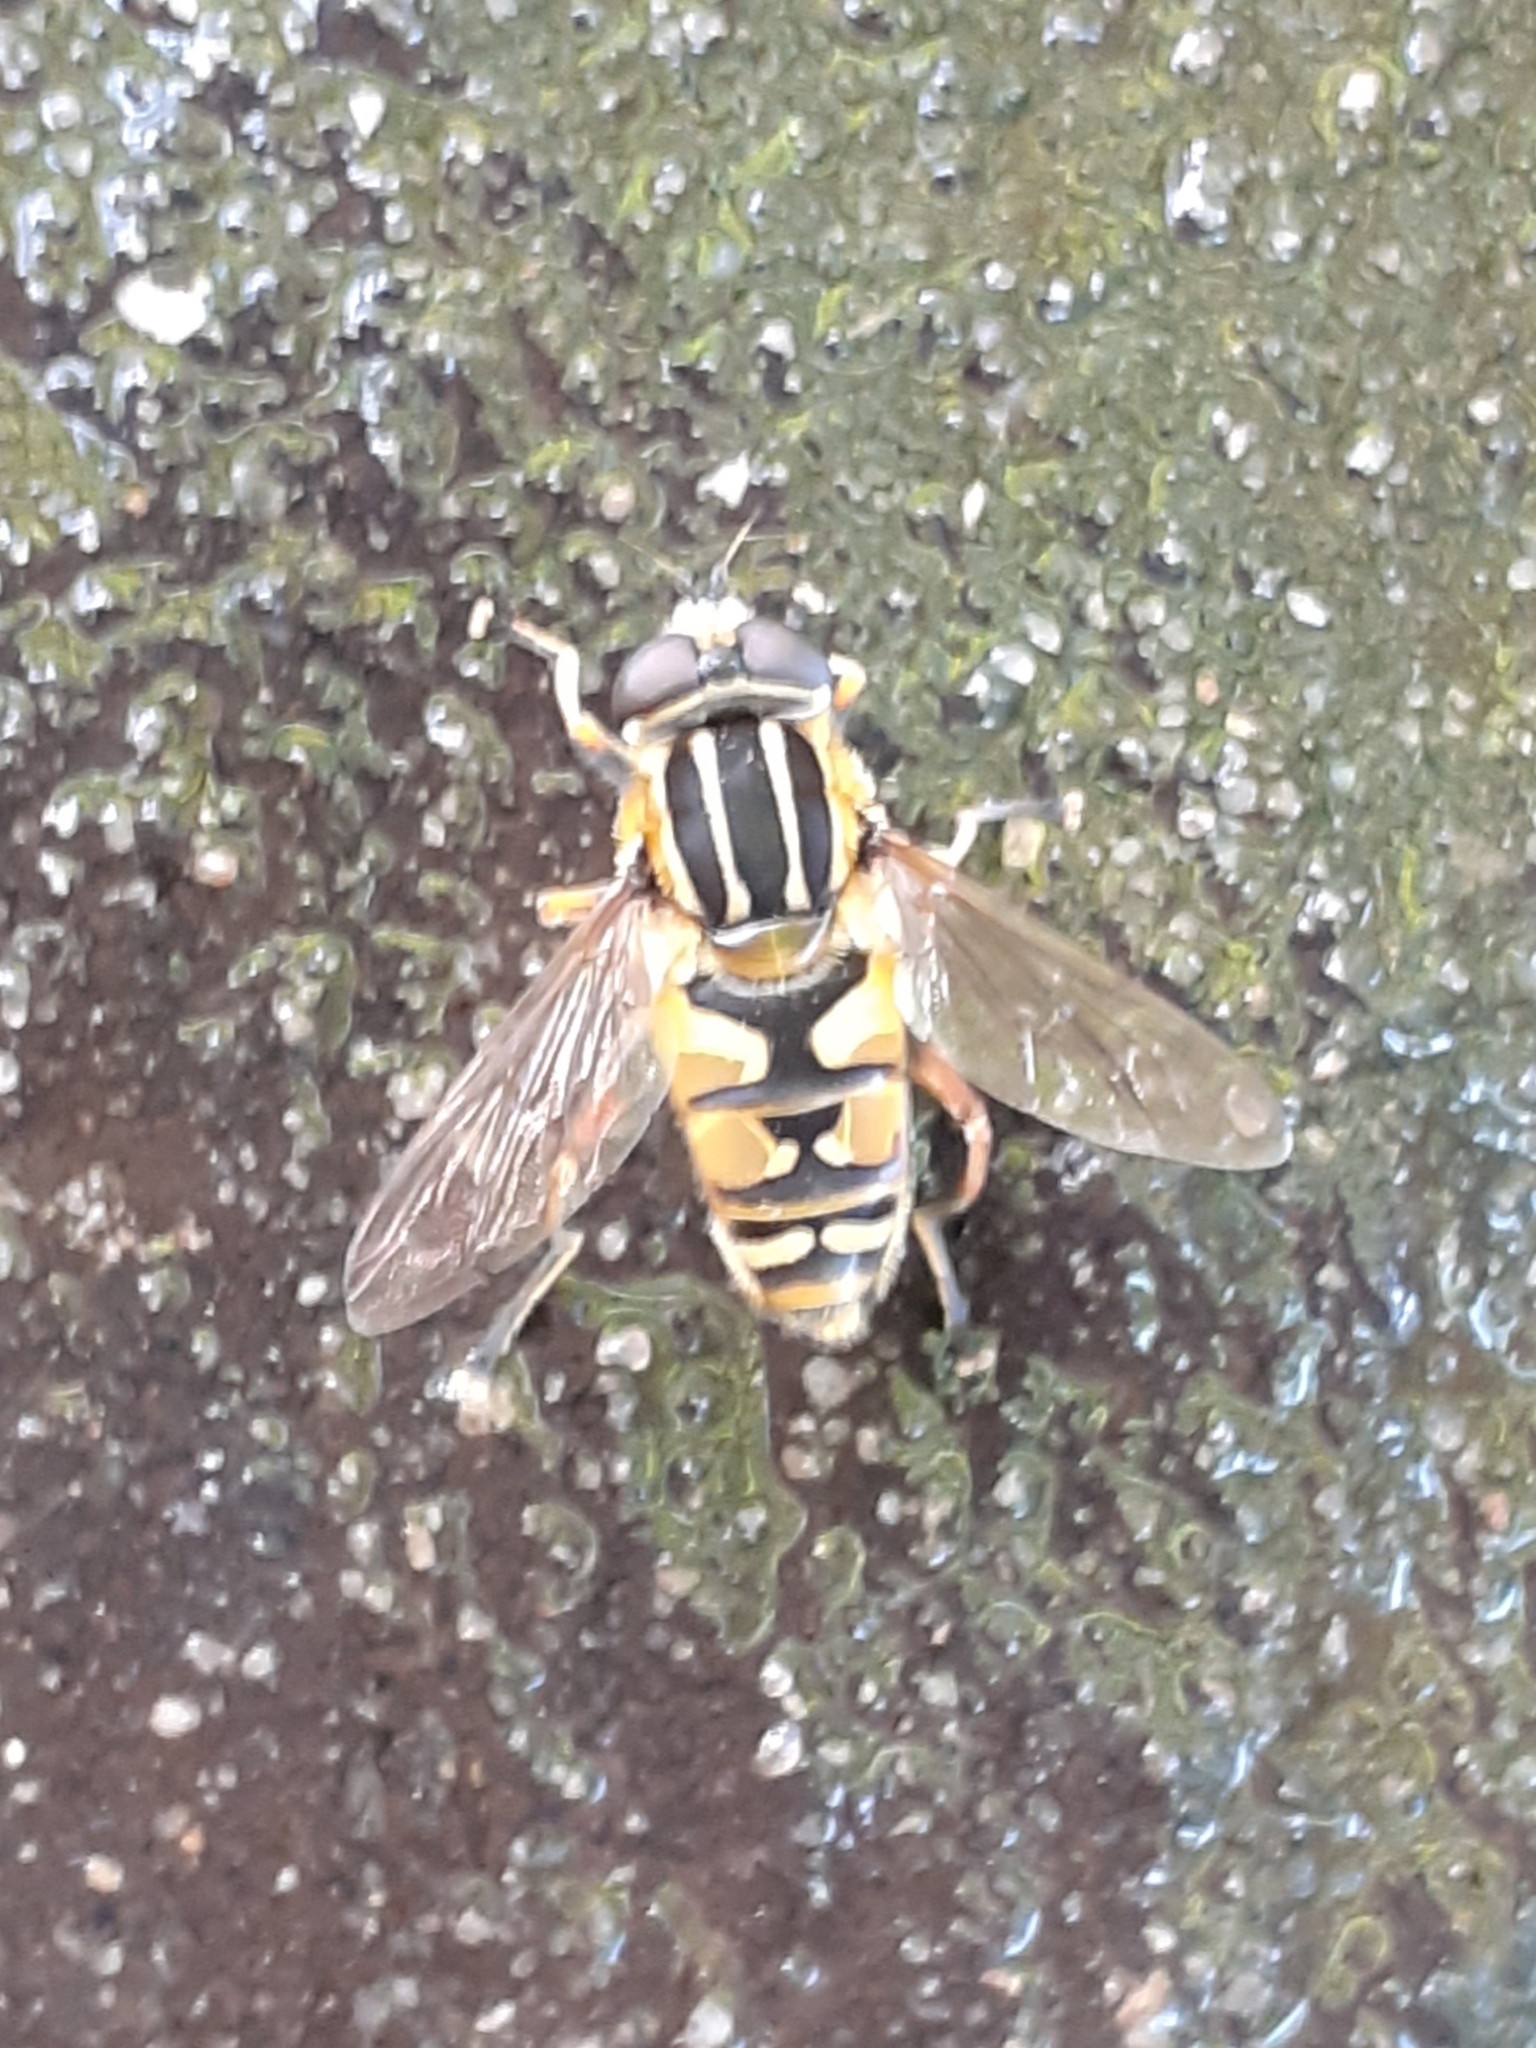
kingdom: Animalia
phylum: Arthropoda
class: Insecta
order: Diptera
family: Syrphidae
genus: Helophilus
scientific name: Helophilus pendulus
